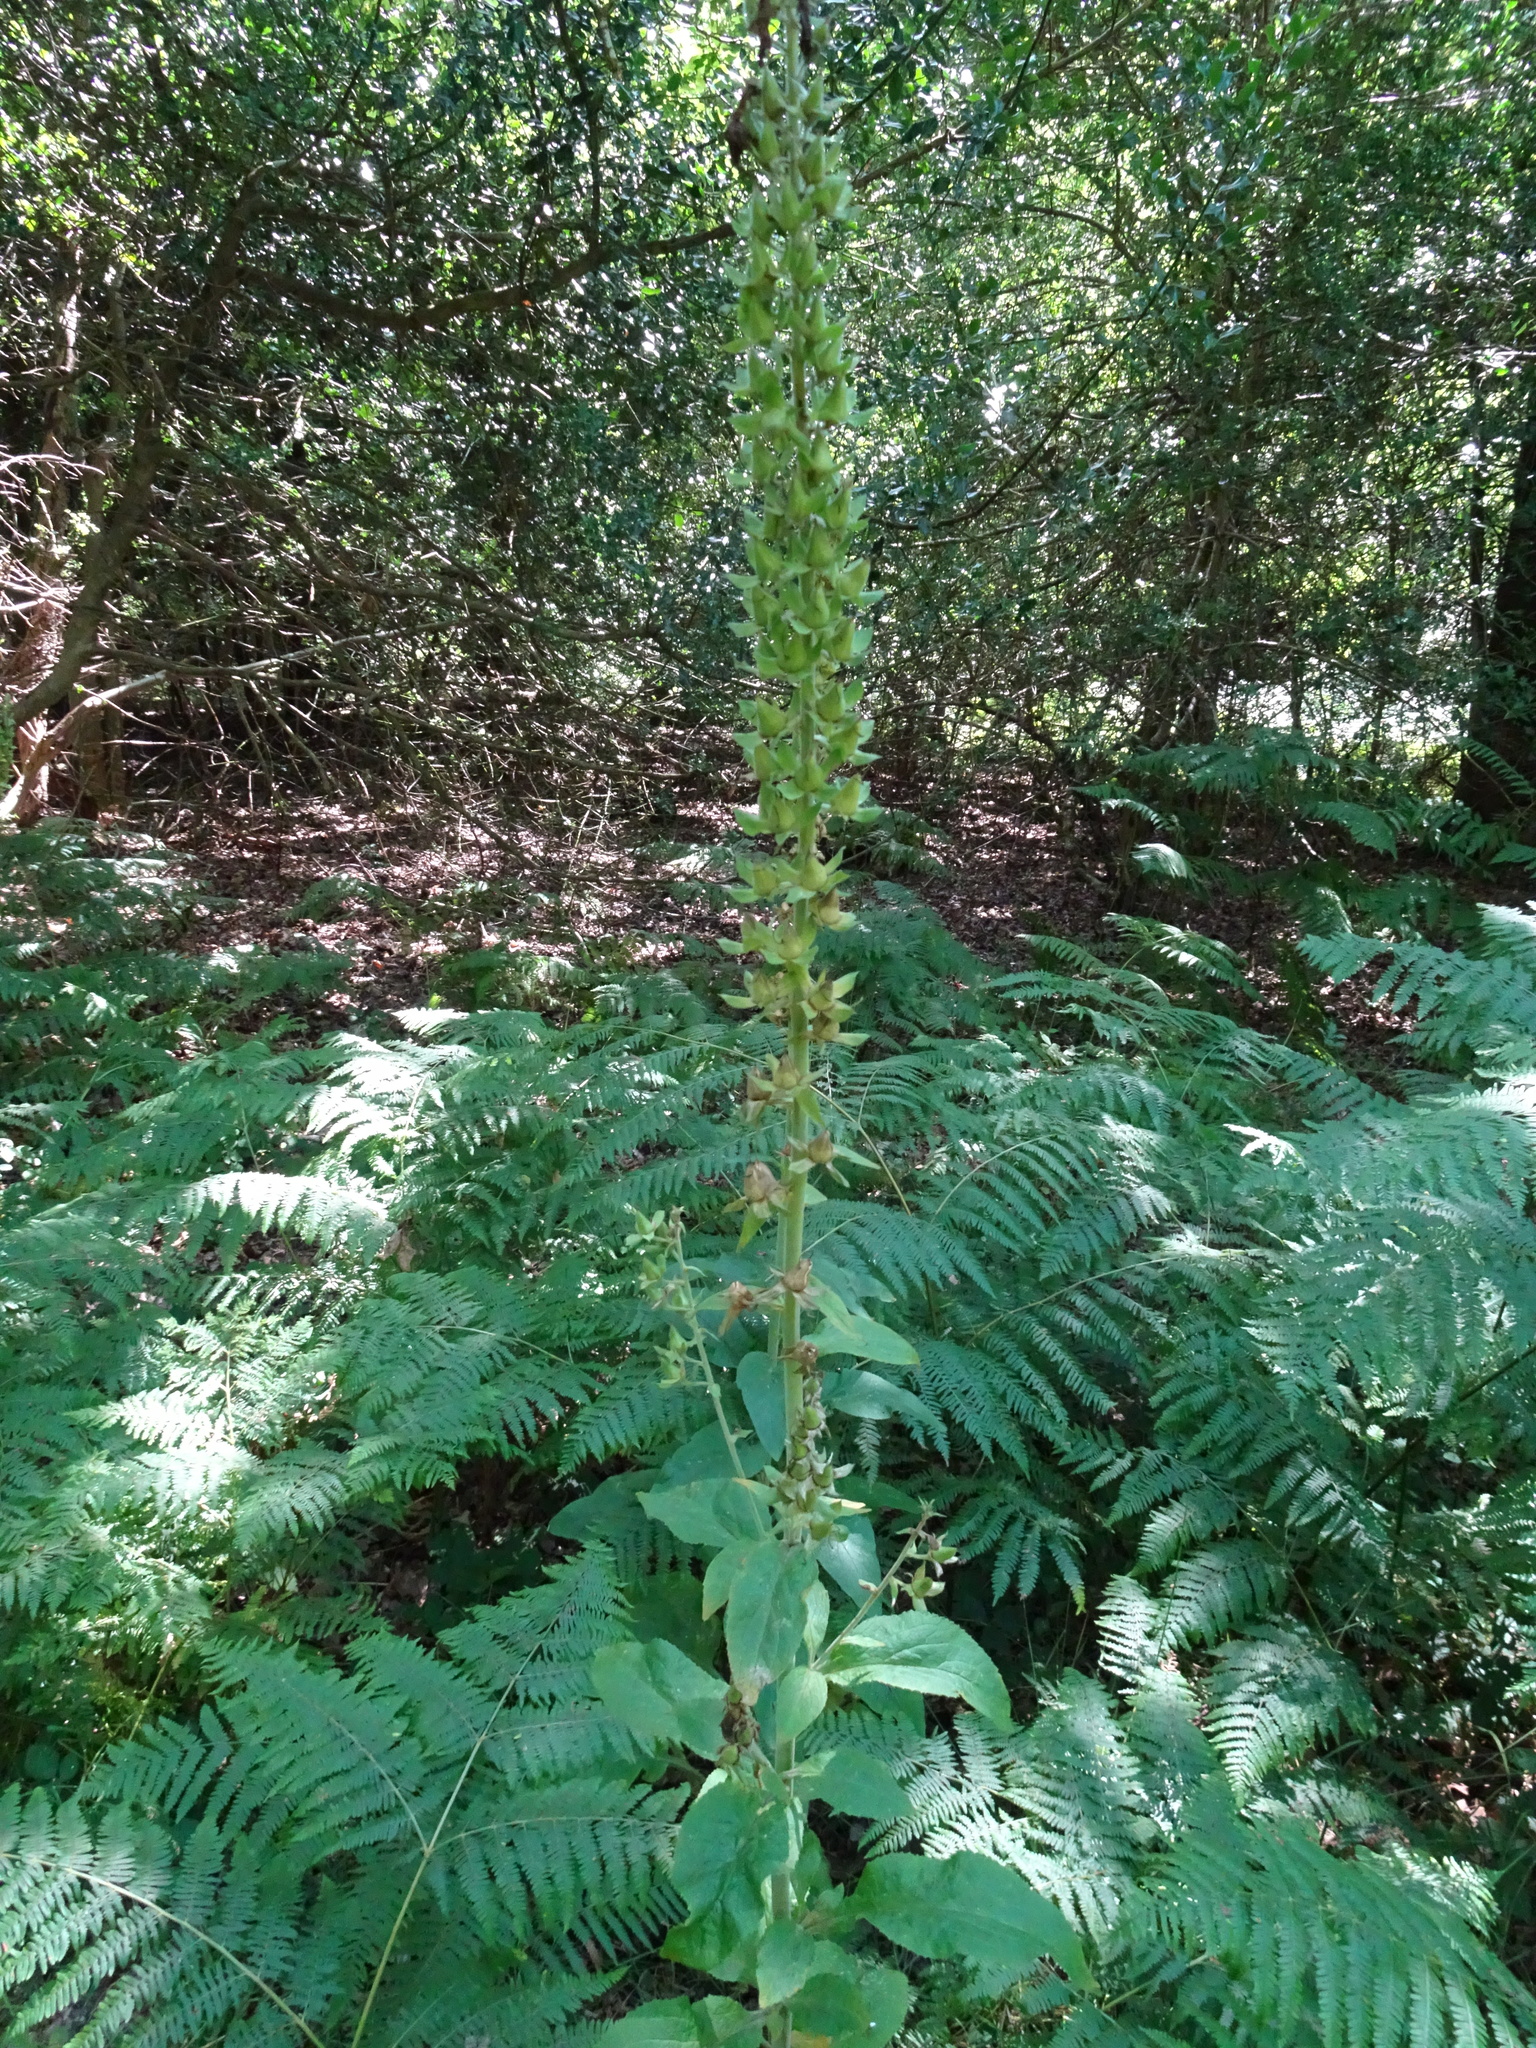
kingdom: Plantae
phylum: Tracheophyta
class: Magnoliopsida
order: Lamiales
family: Plantaginaceae
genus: Digitalis
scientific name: Digitalis purpurea
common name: Foxglove
